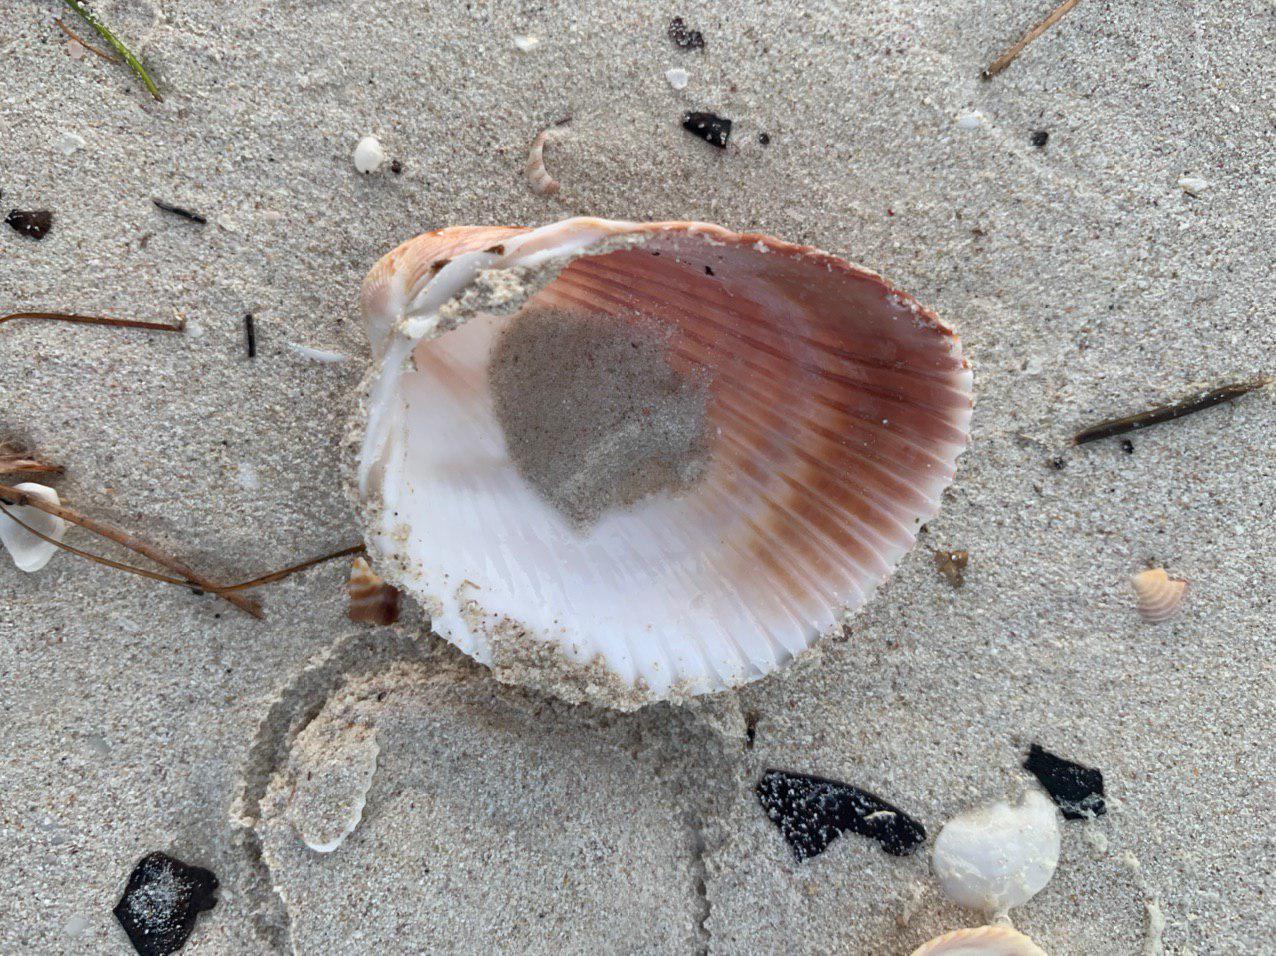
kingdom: Animalia
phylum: Mollusca
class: Bivalvia
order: Cardiida
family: Cardiidae
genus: Dinocardium
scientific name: Dinocardium robustum
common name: Atlantic giant cockle
